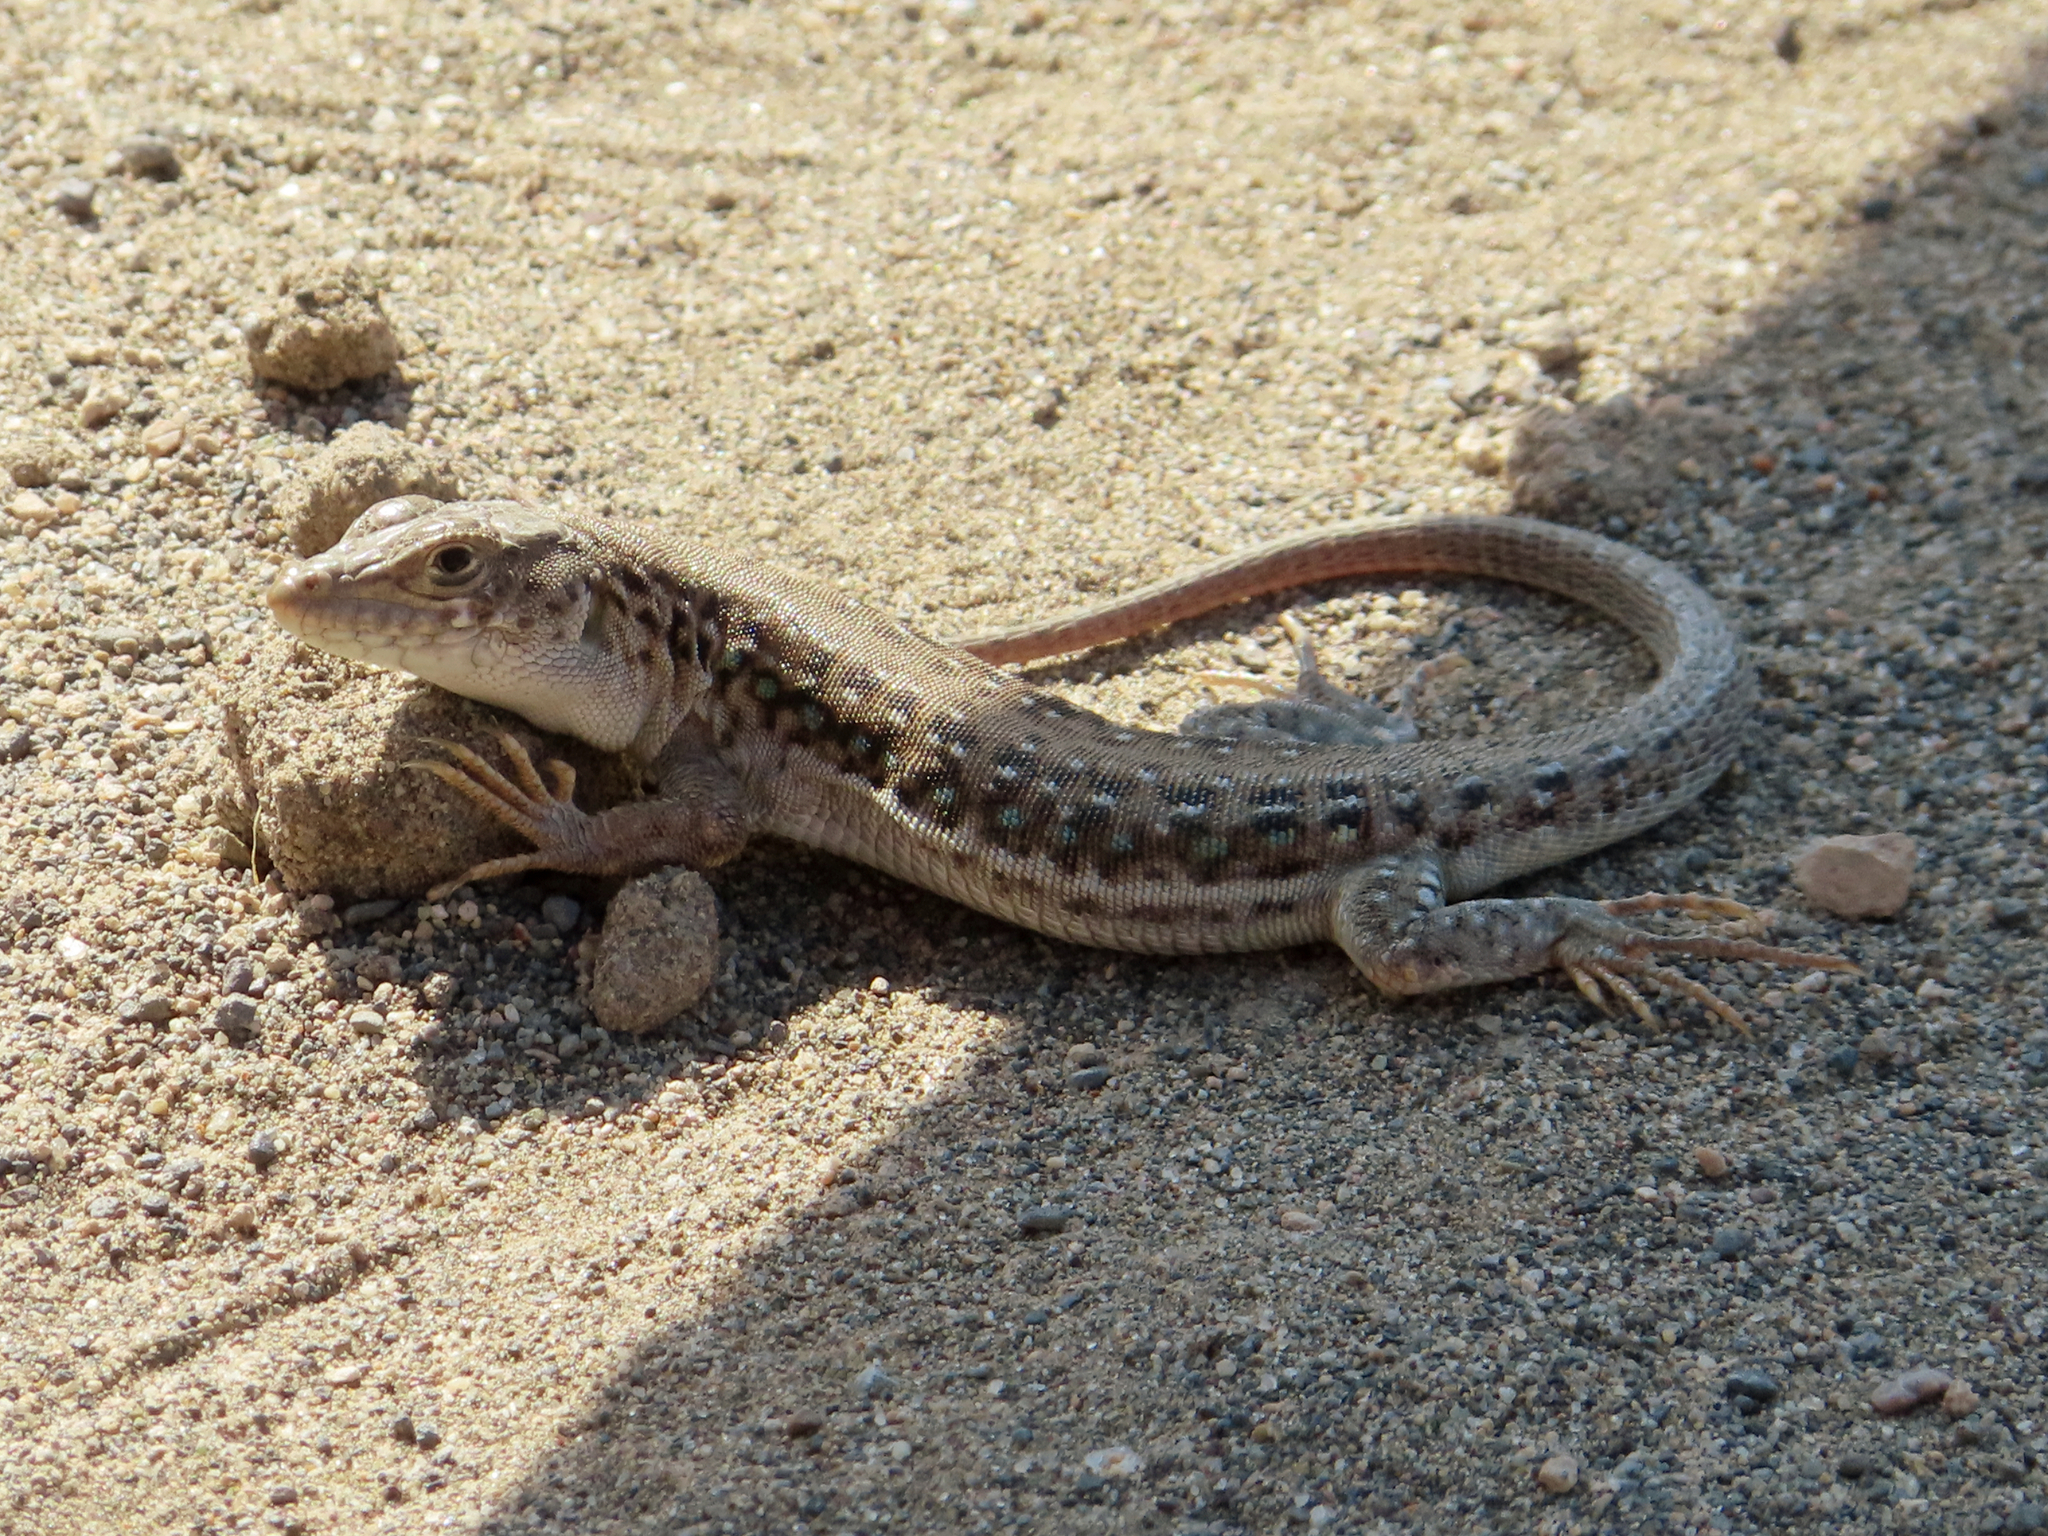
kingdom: Animalia
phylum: Chordata
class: Squamata
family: Lacertidae
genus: Eremias
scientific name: Eremias strauchi
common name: Strauch's racerunner
